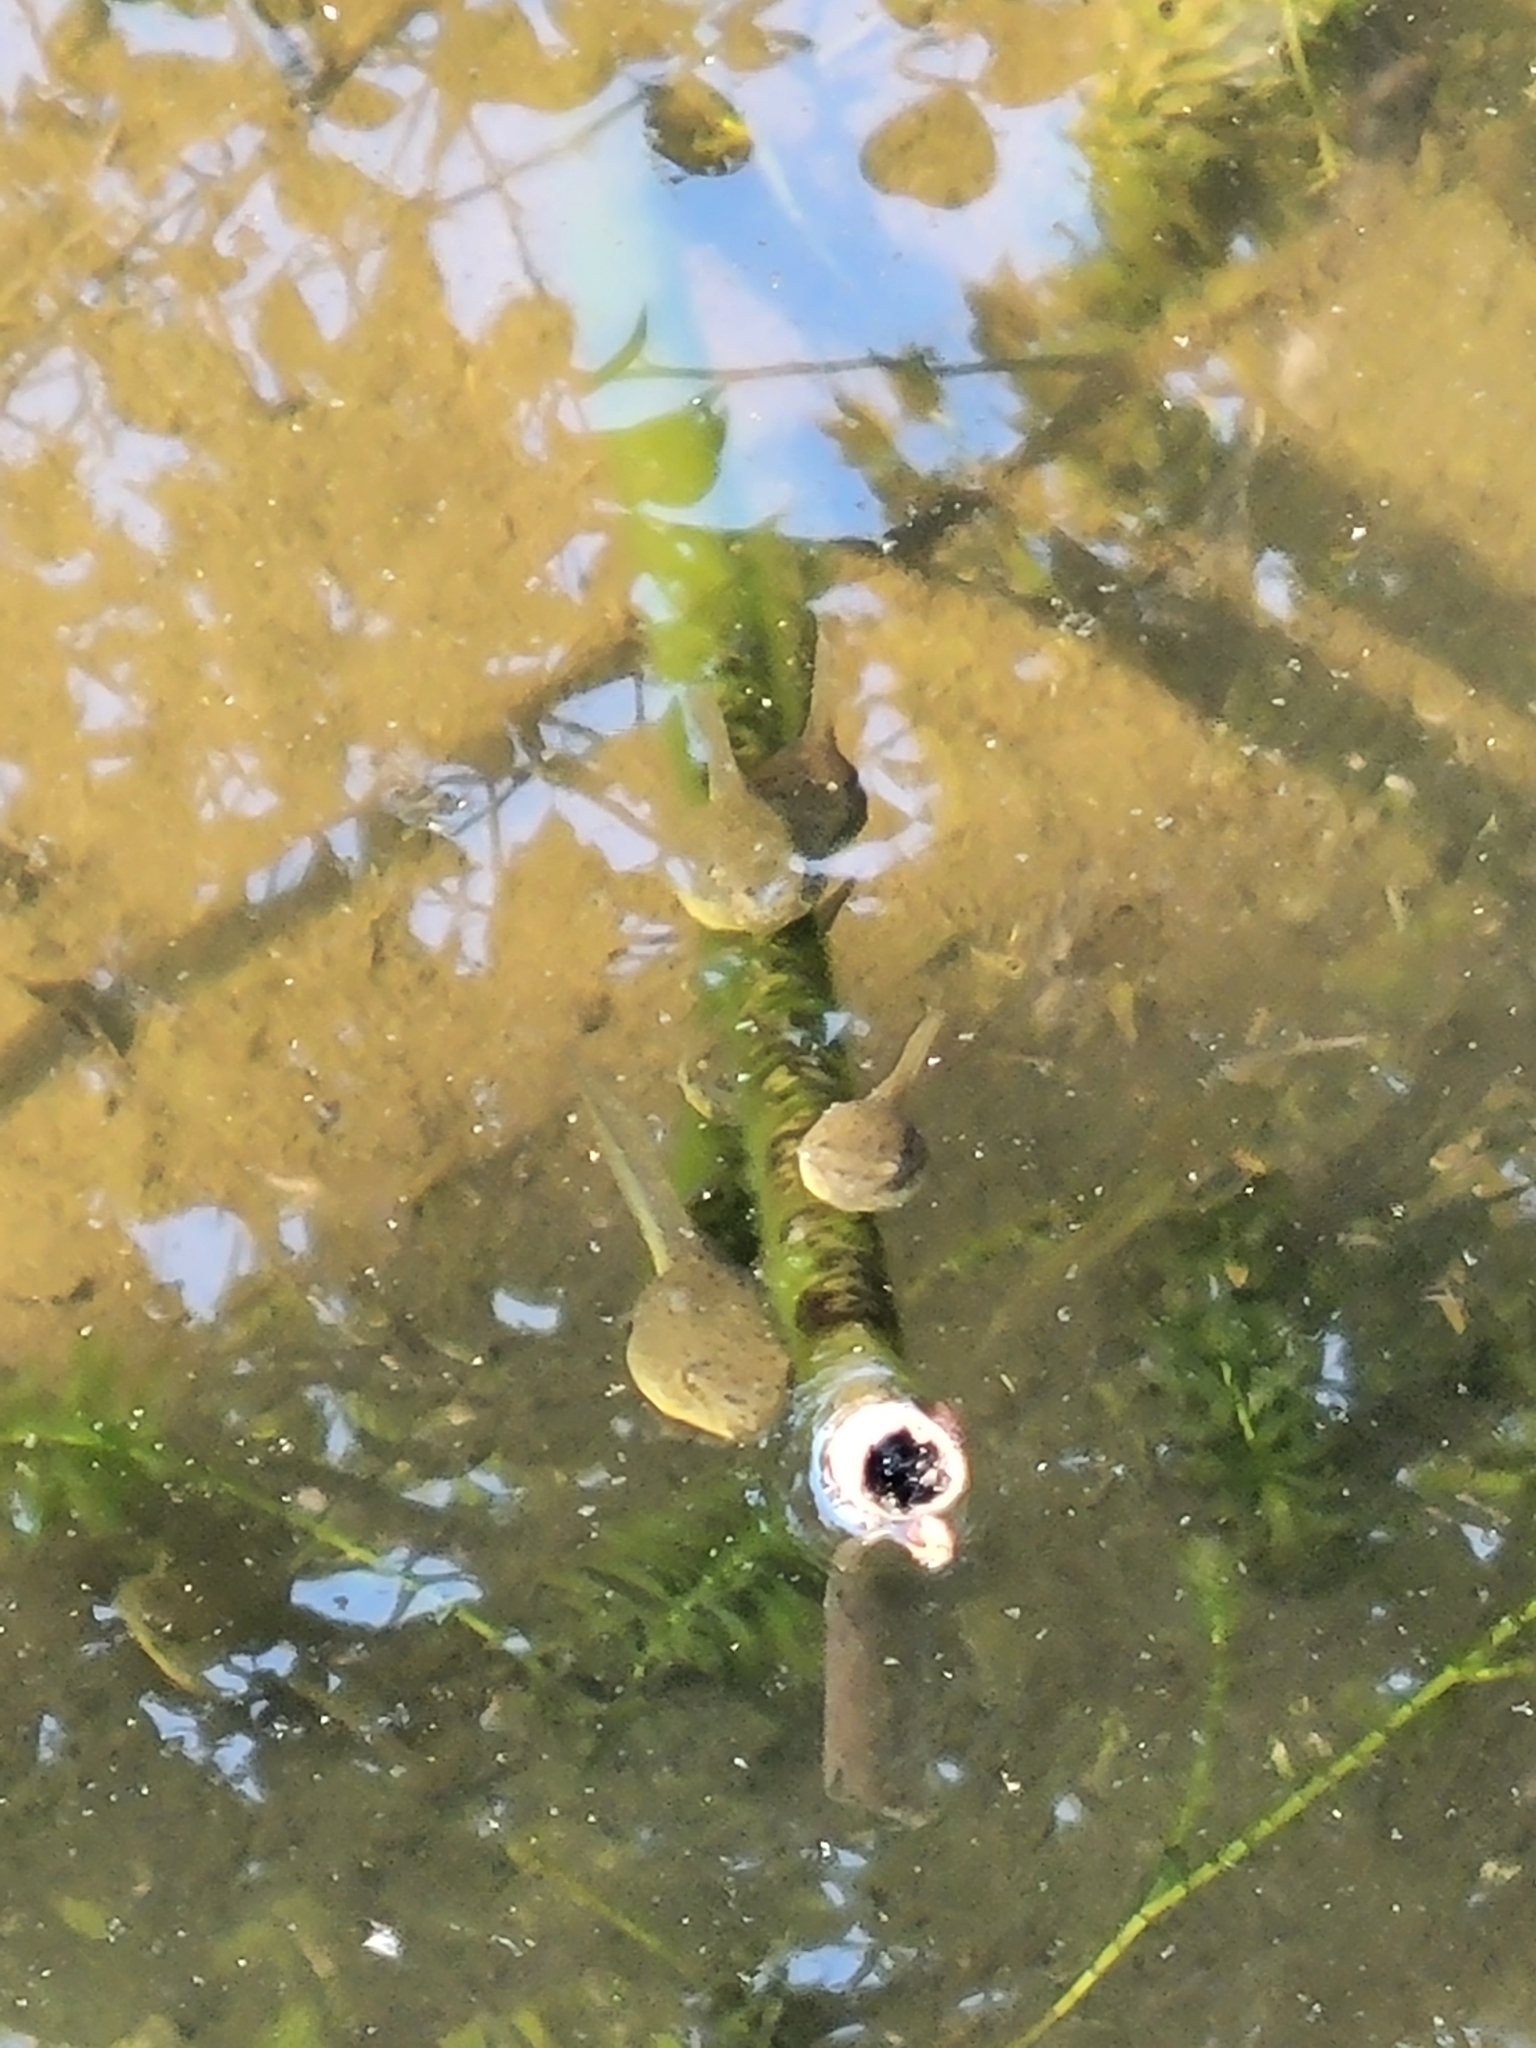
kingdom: Animalia
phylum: Chordata
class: Amphibia
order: Anura
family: Ranidae
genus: Lithobates
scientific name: Lithobates catesbeianus
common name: American bullfrog
